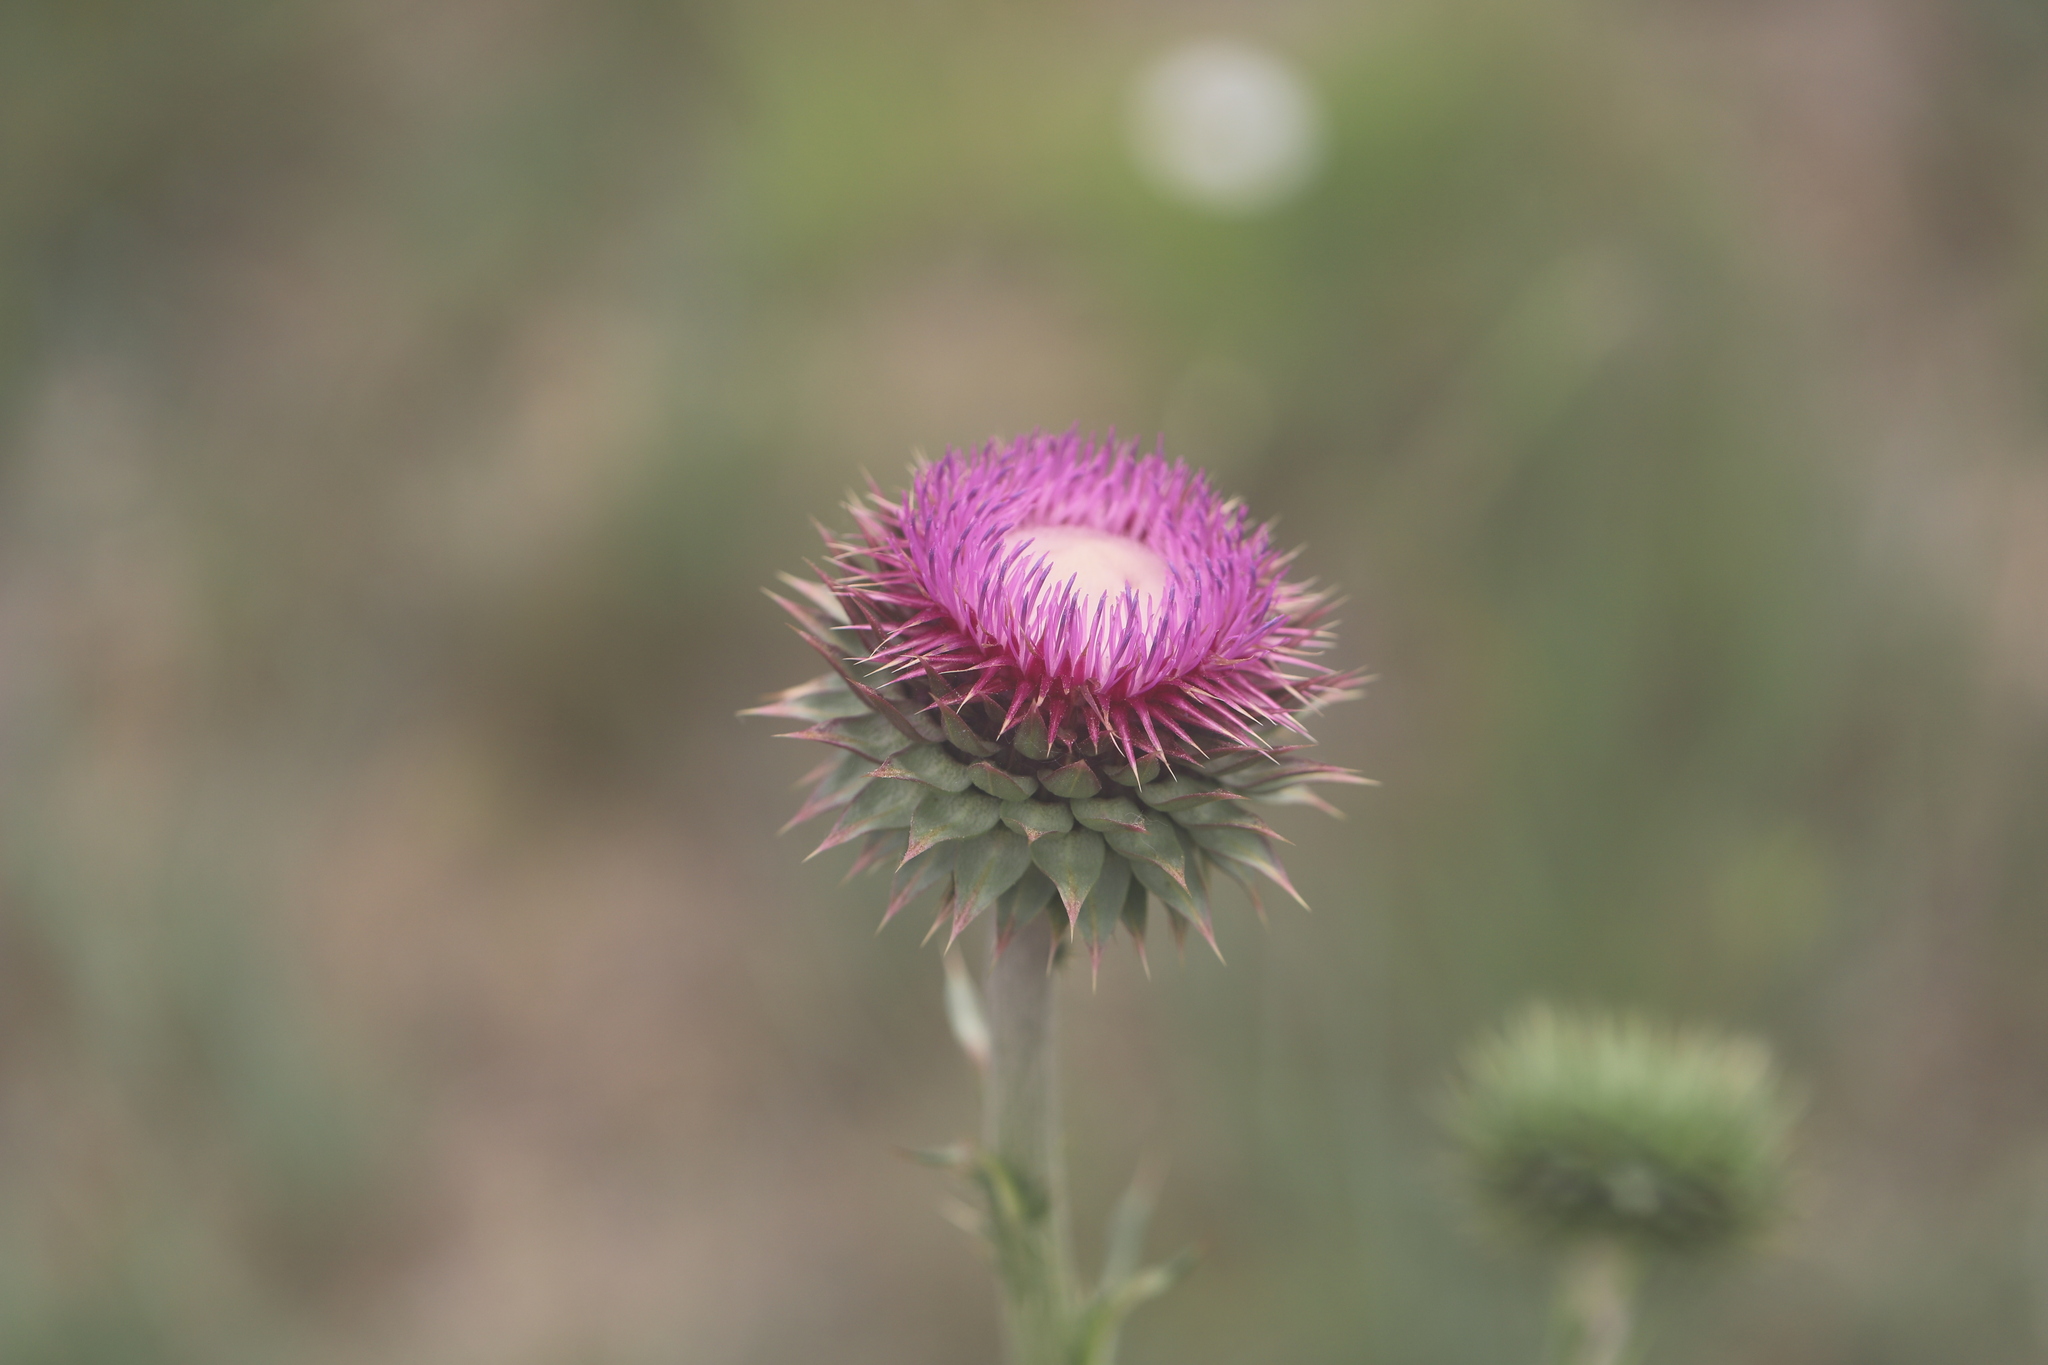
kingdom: Plantae
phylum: Tracheophyta
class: Magnoliopsida
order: Asterales
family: Asteraceae
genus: Carduus
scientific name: Carduus nutans
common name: Musk thistle
